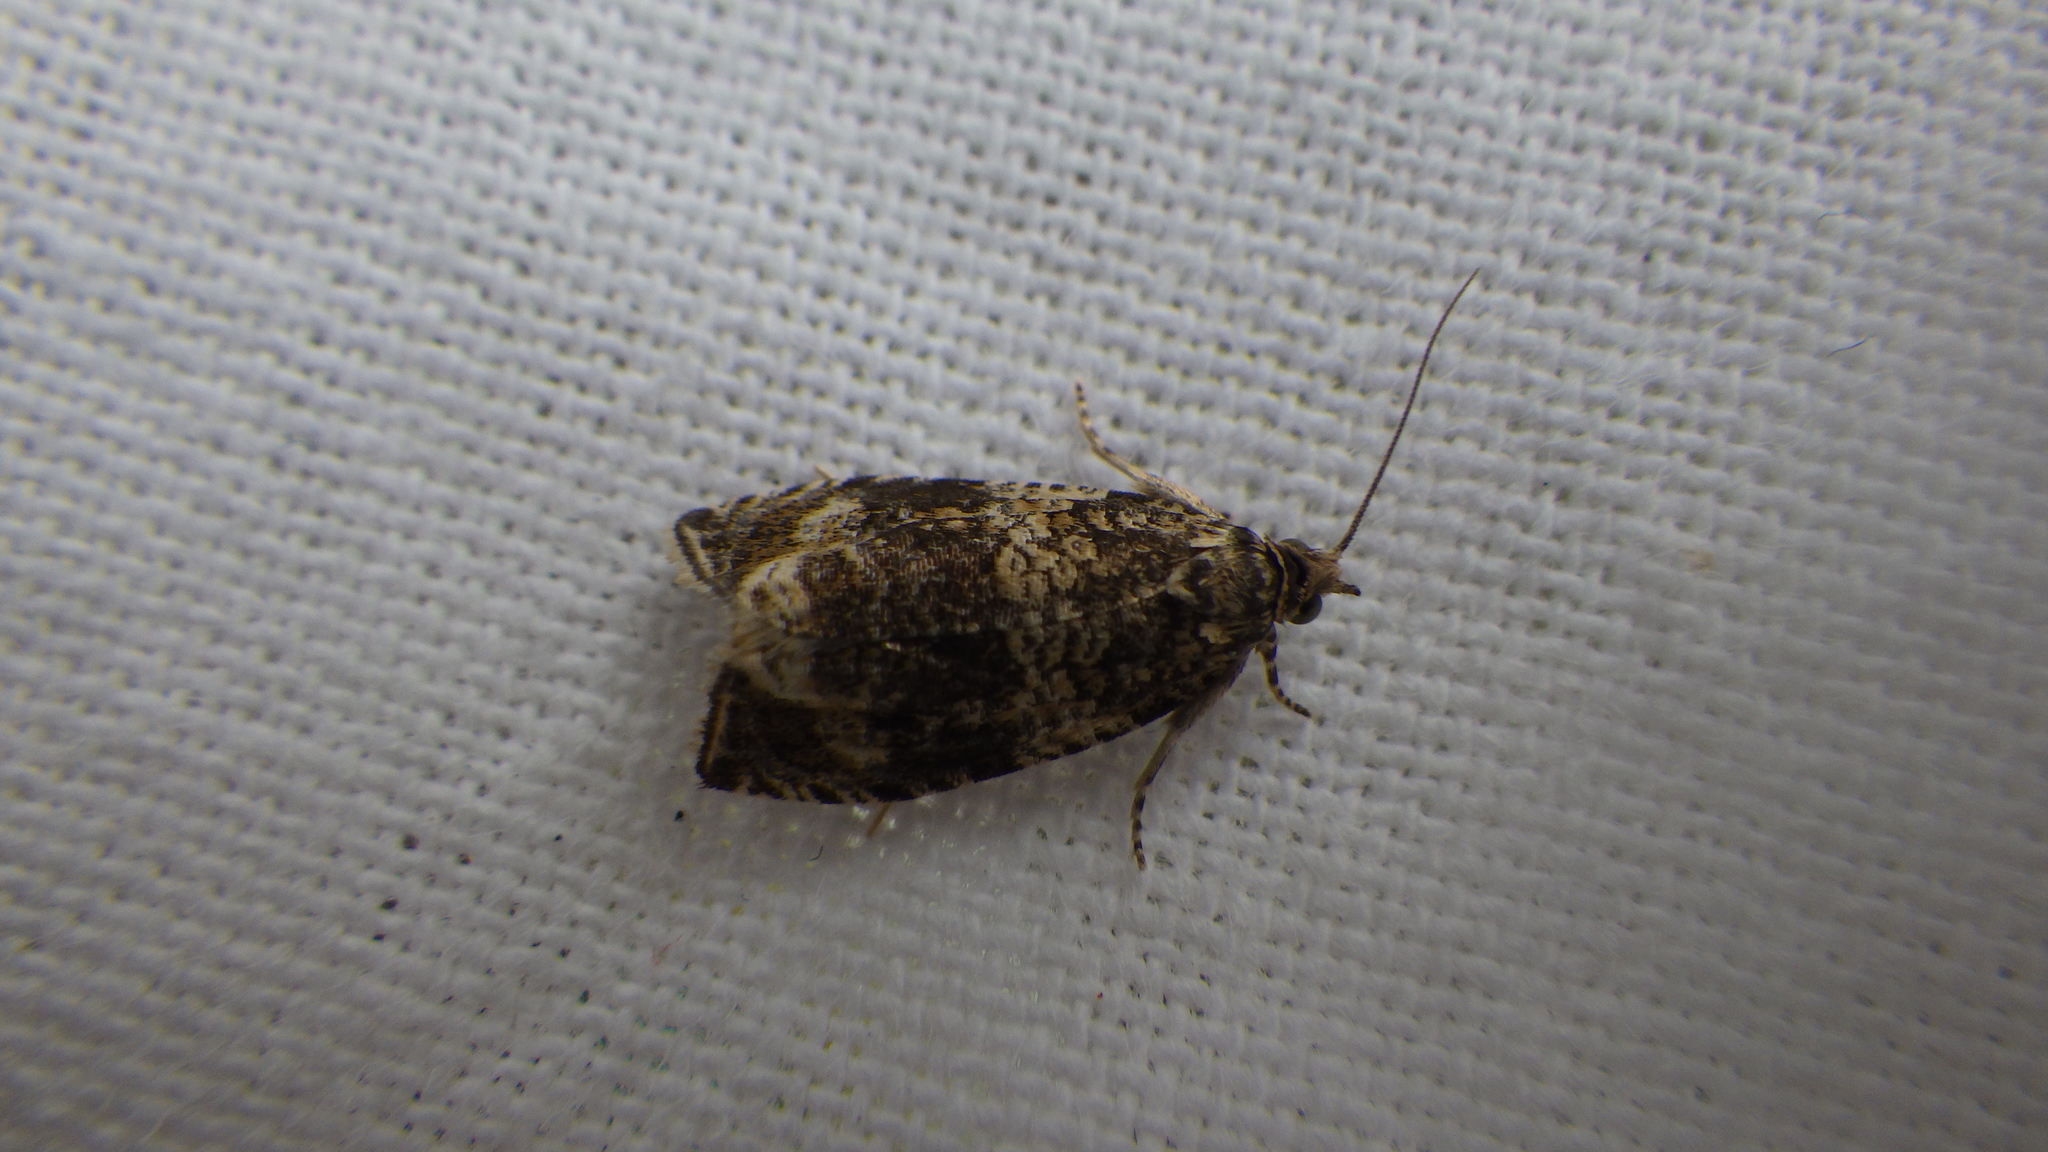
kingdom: Animalia
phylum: Arthropoda
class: Insecta
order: Lepidoptera
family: Tortricidae
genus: Syricoris
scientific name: Syricoris lacunana
